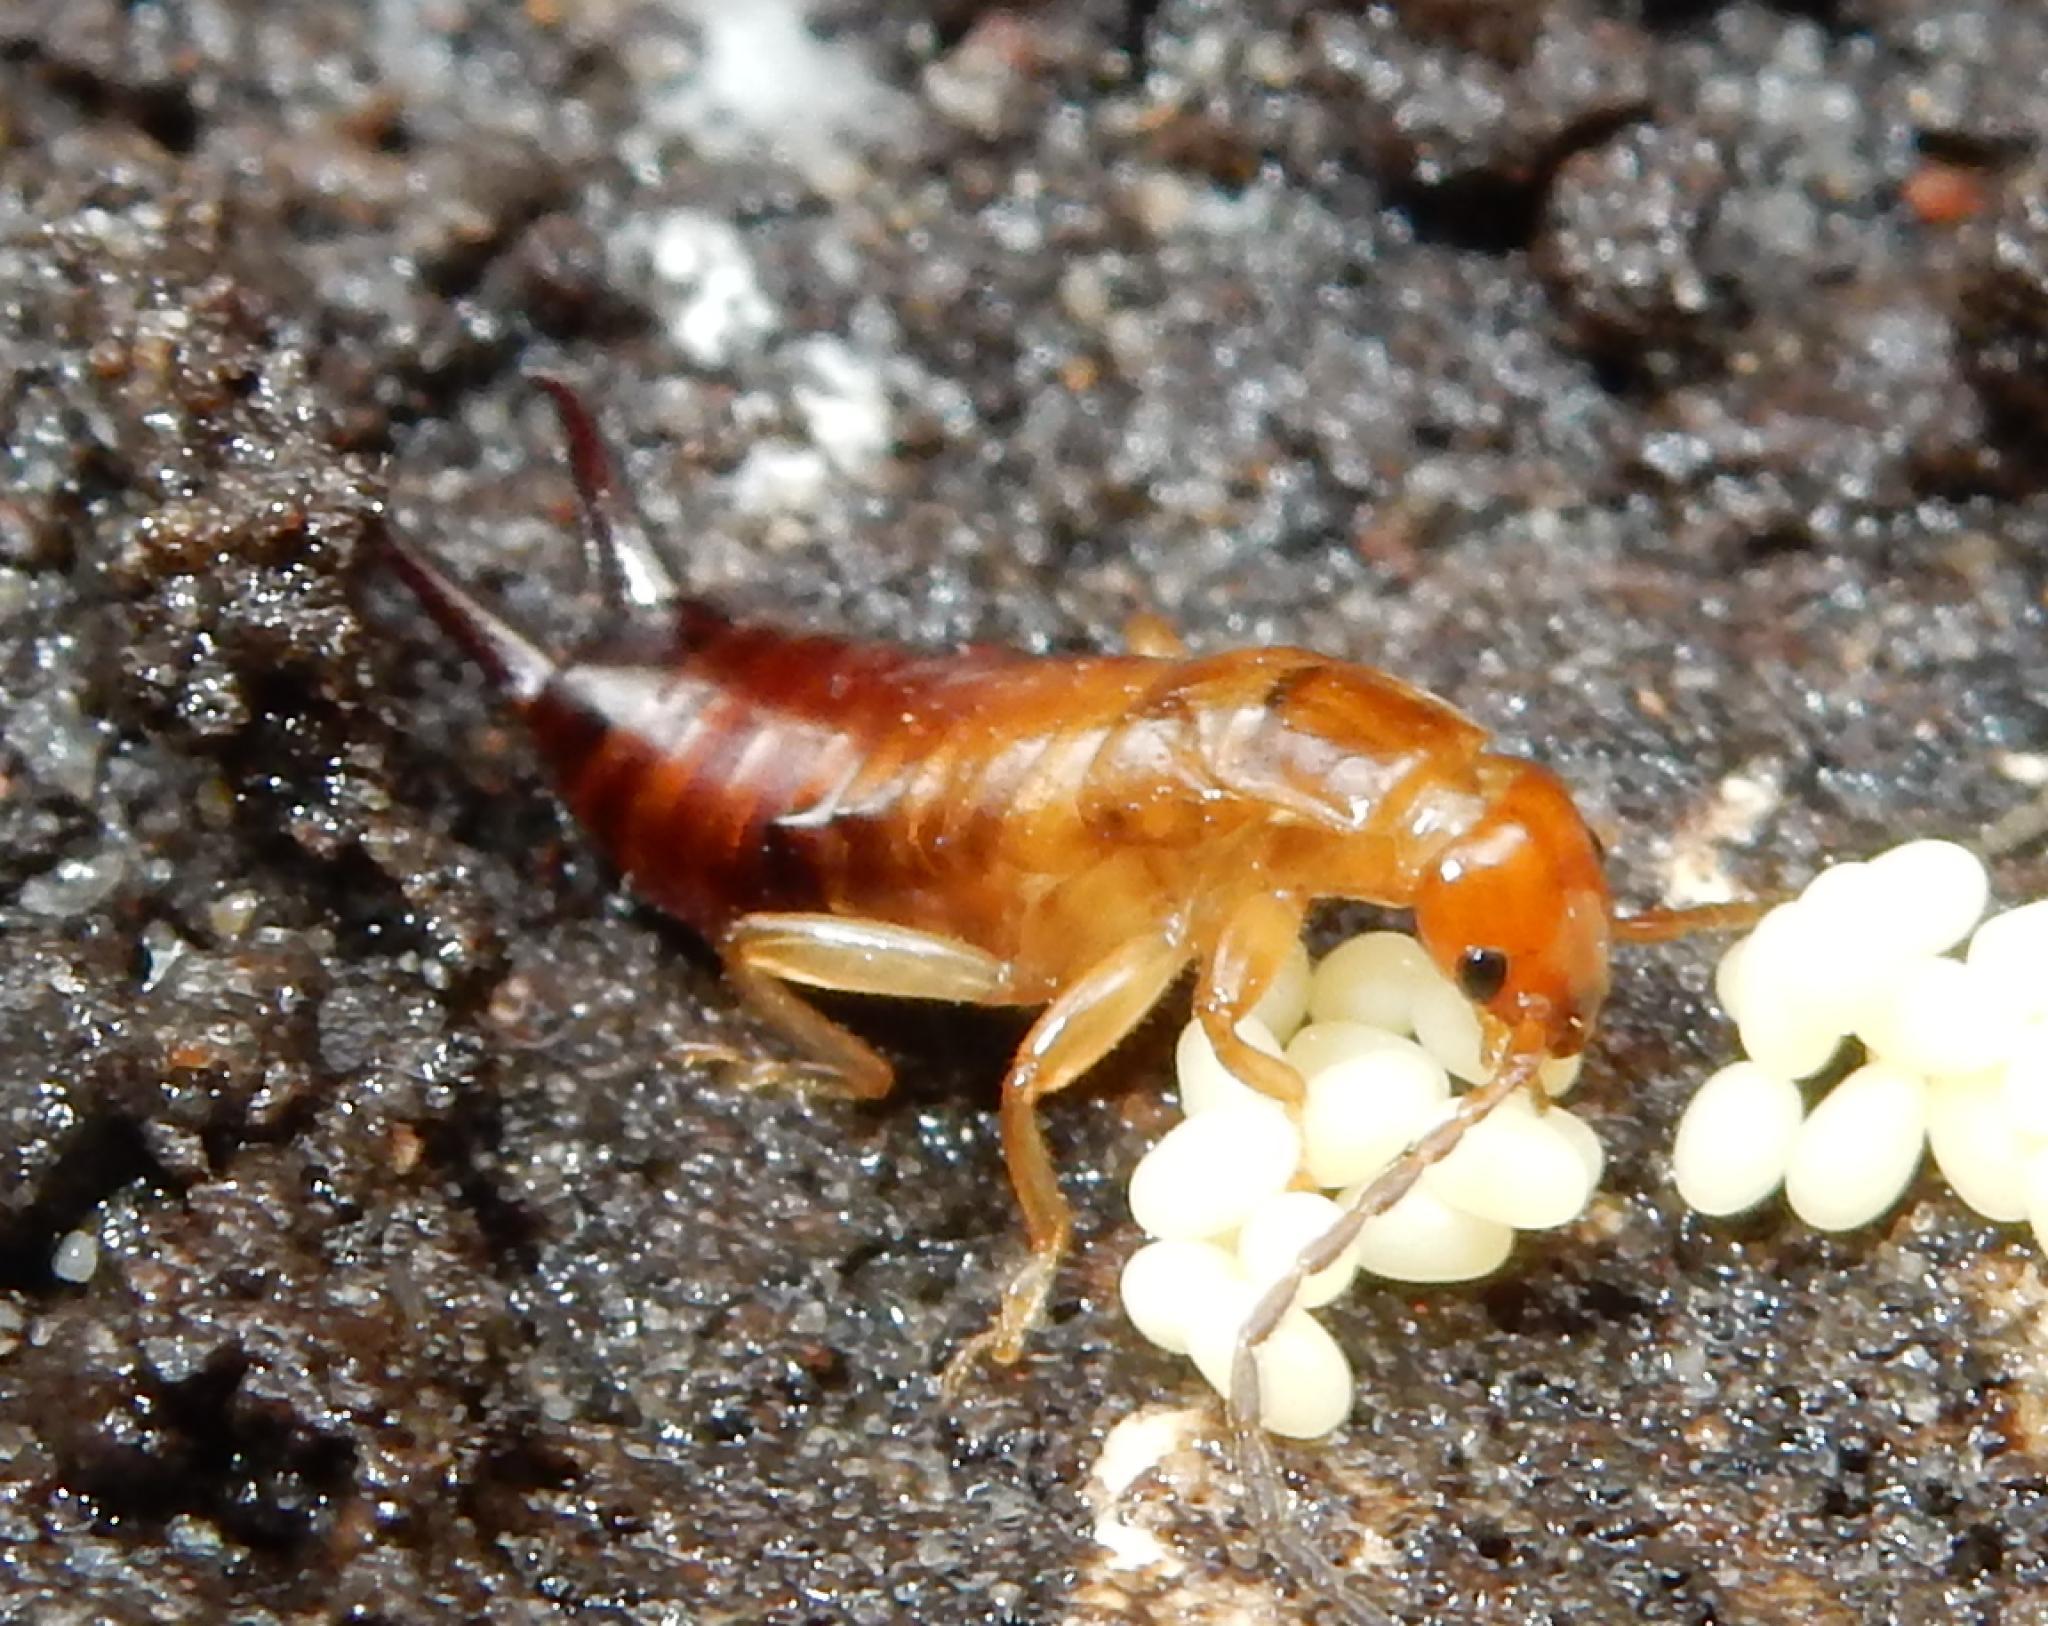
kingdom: Animalia
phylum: Arthropoda
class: Insecta
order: Dermaptera
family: Forficulidae
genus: Proforficula
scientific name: Proforficula peringueyi
